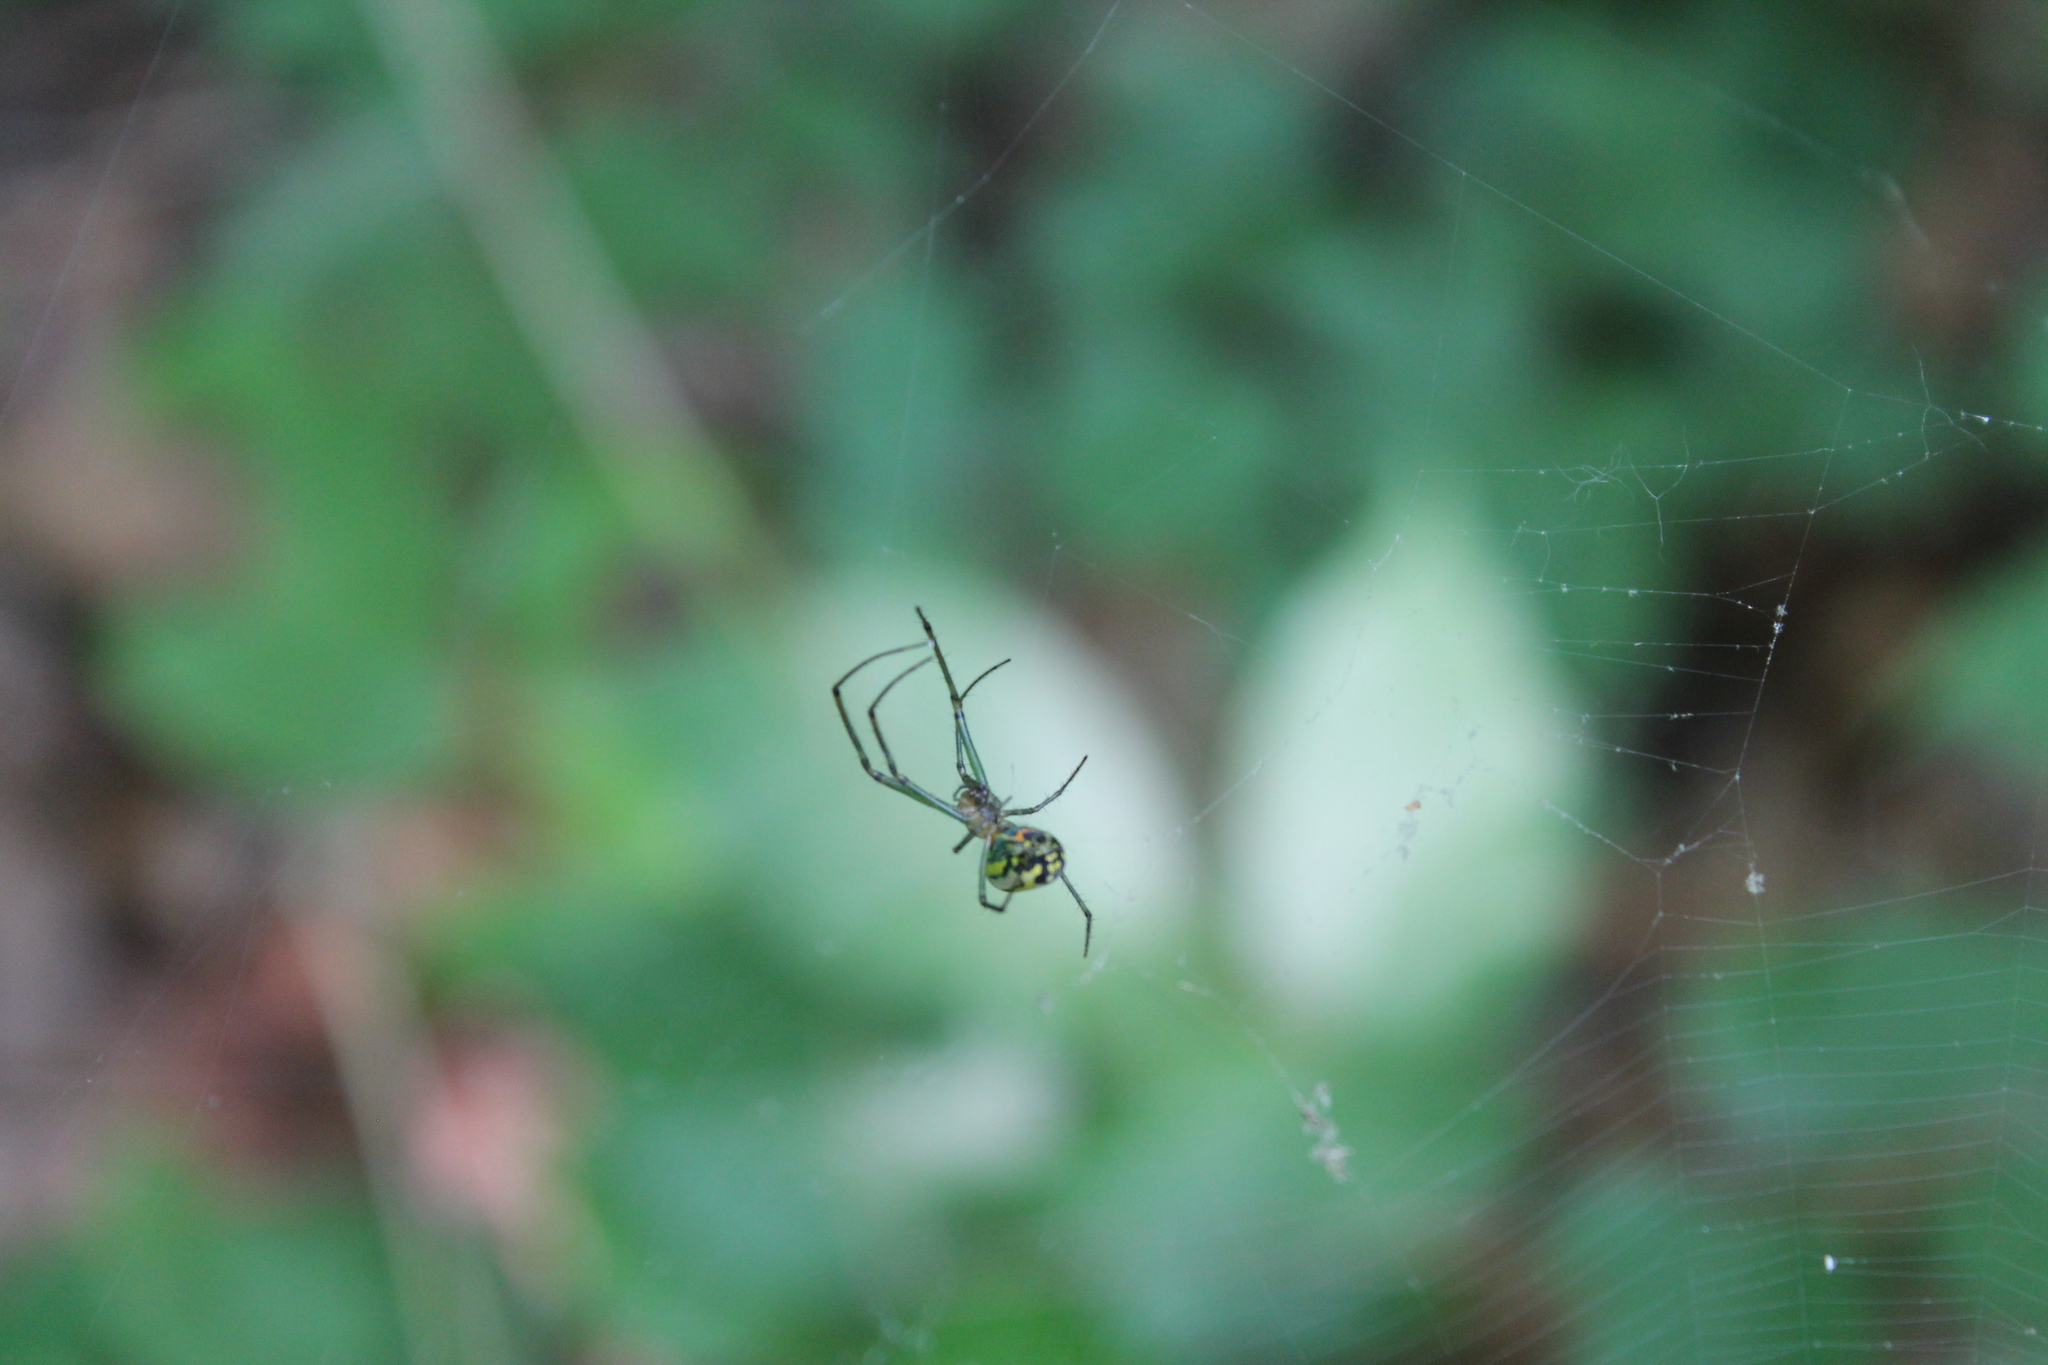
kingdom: Animalia
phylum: Arthropoda
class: Arachnida
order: Araneae
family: Tetragnathidae
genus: Leucauge
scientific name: Leucauge venusta
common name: Longjawed orb weavers
